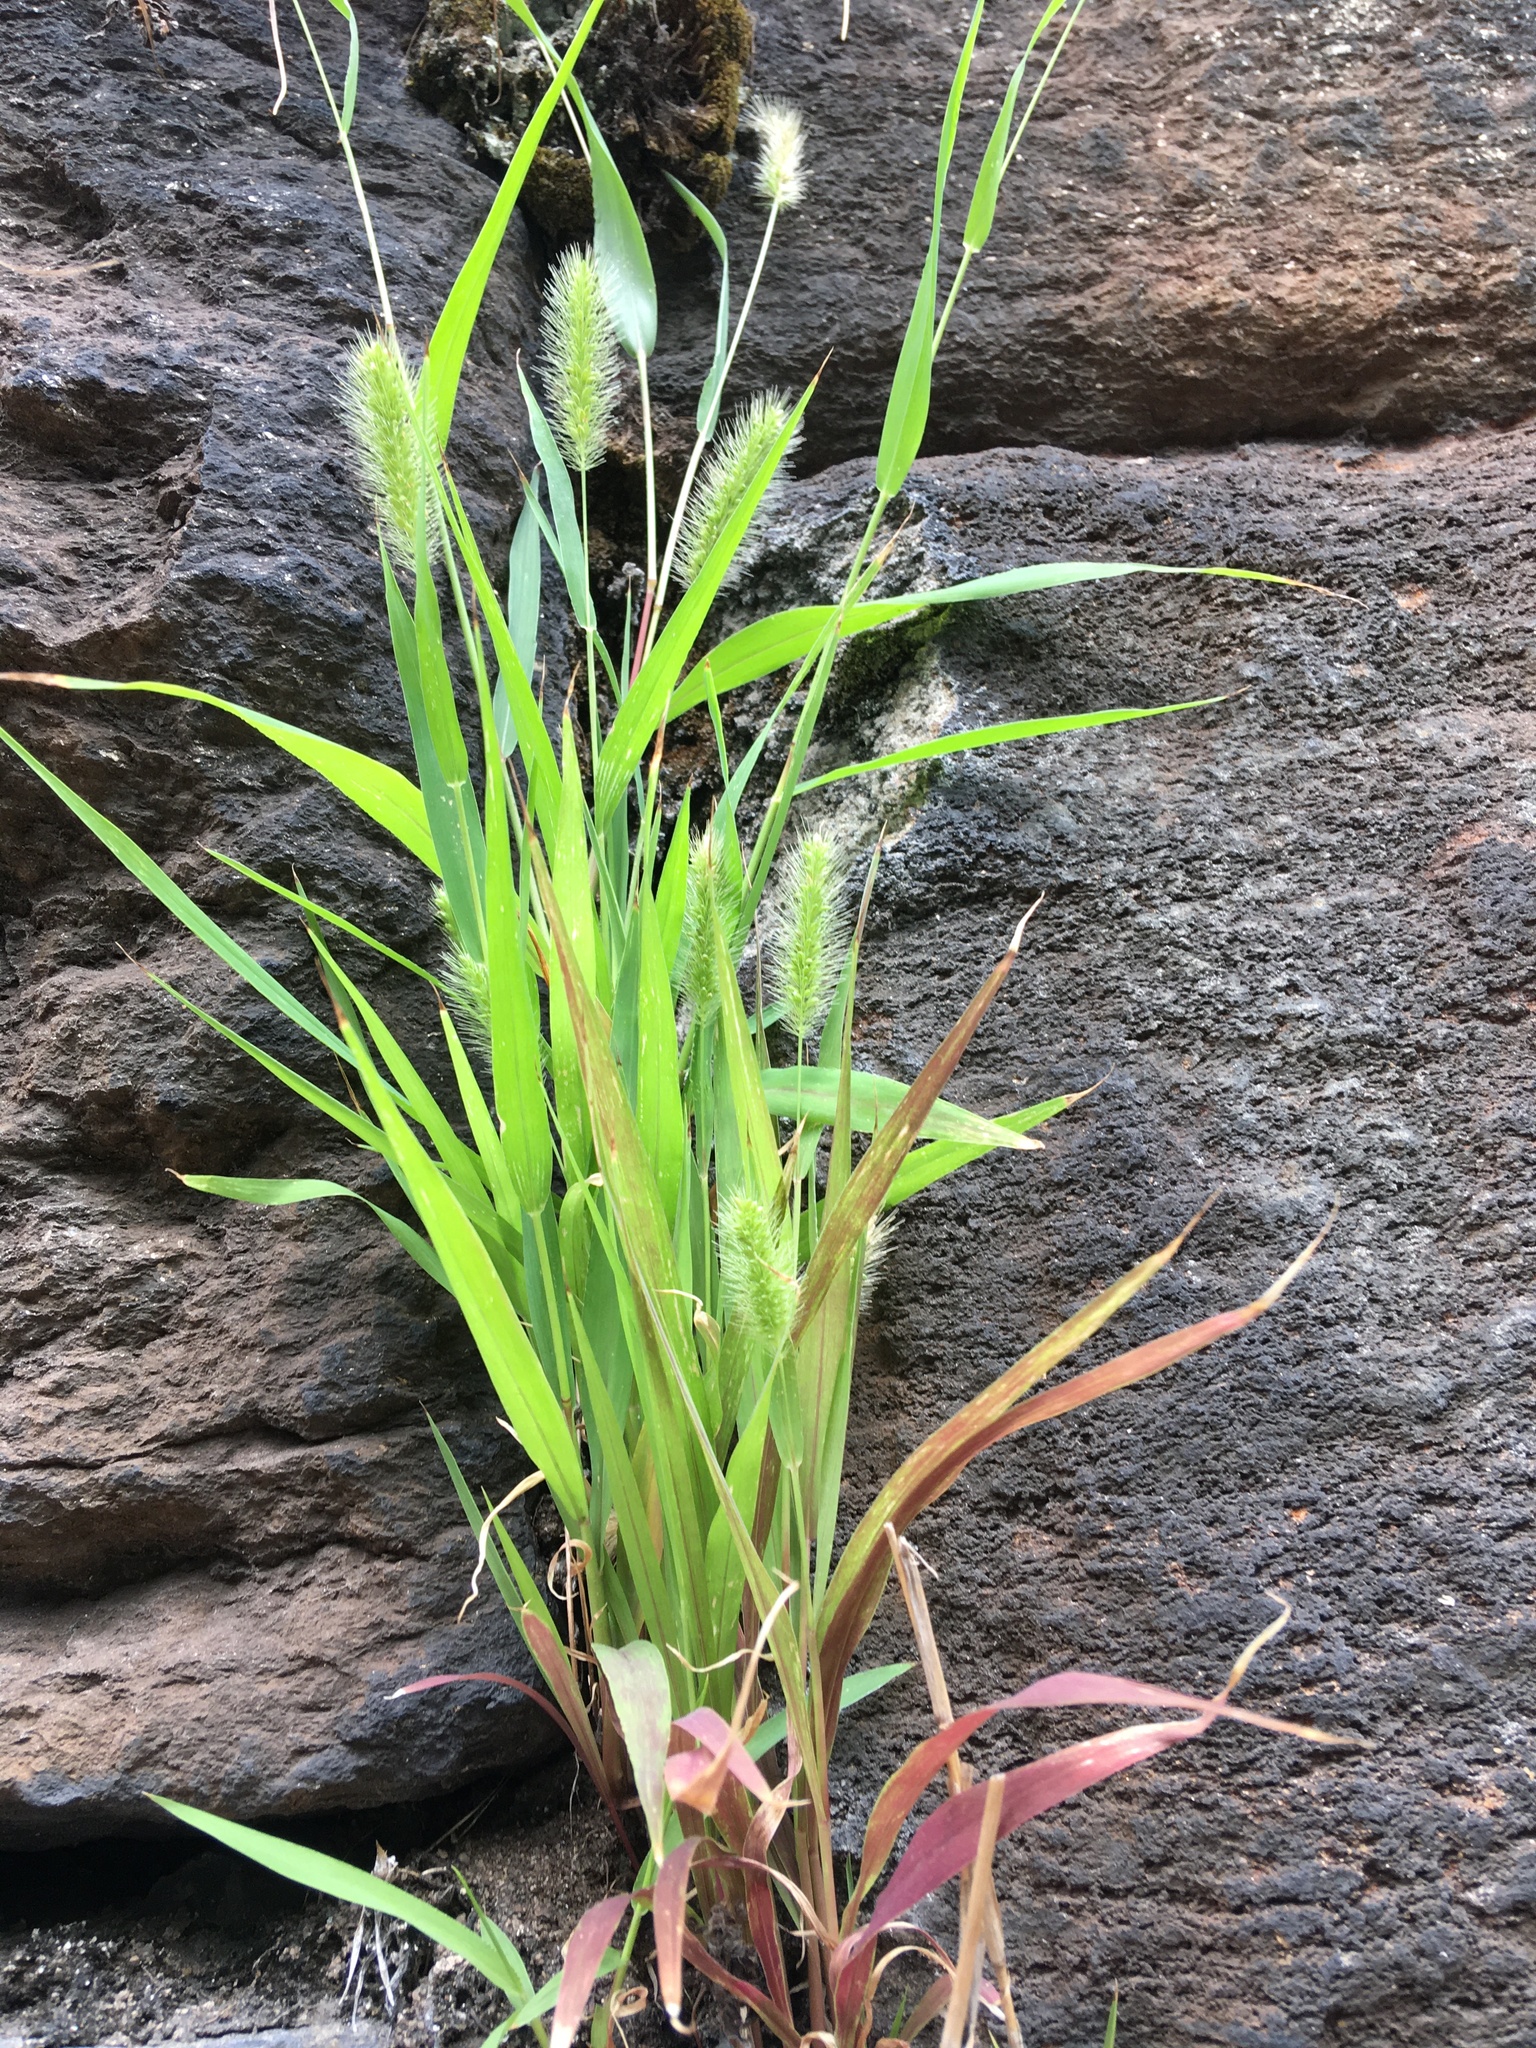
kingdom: Plantae
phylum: Tracheophyta
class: Liliopsida
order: Poales
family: Poaceae
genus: Setaria
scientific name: Setaria viridis
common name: Green bristlegrass
